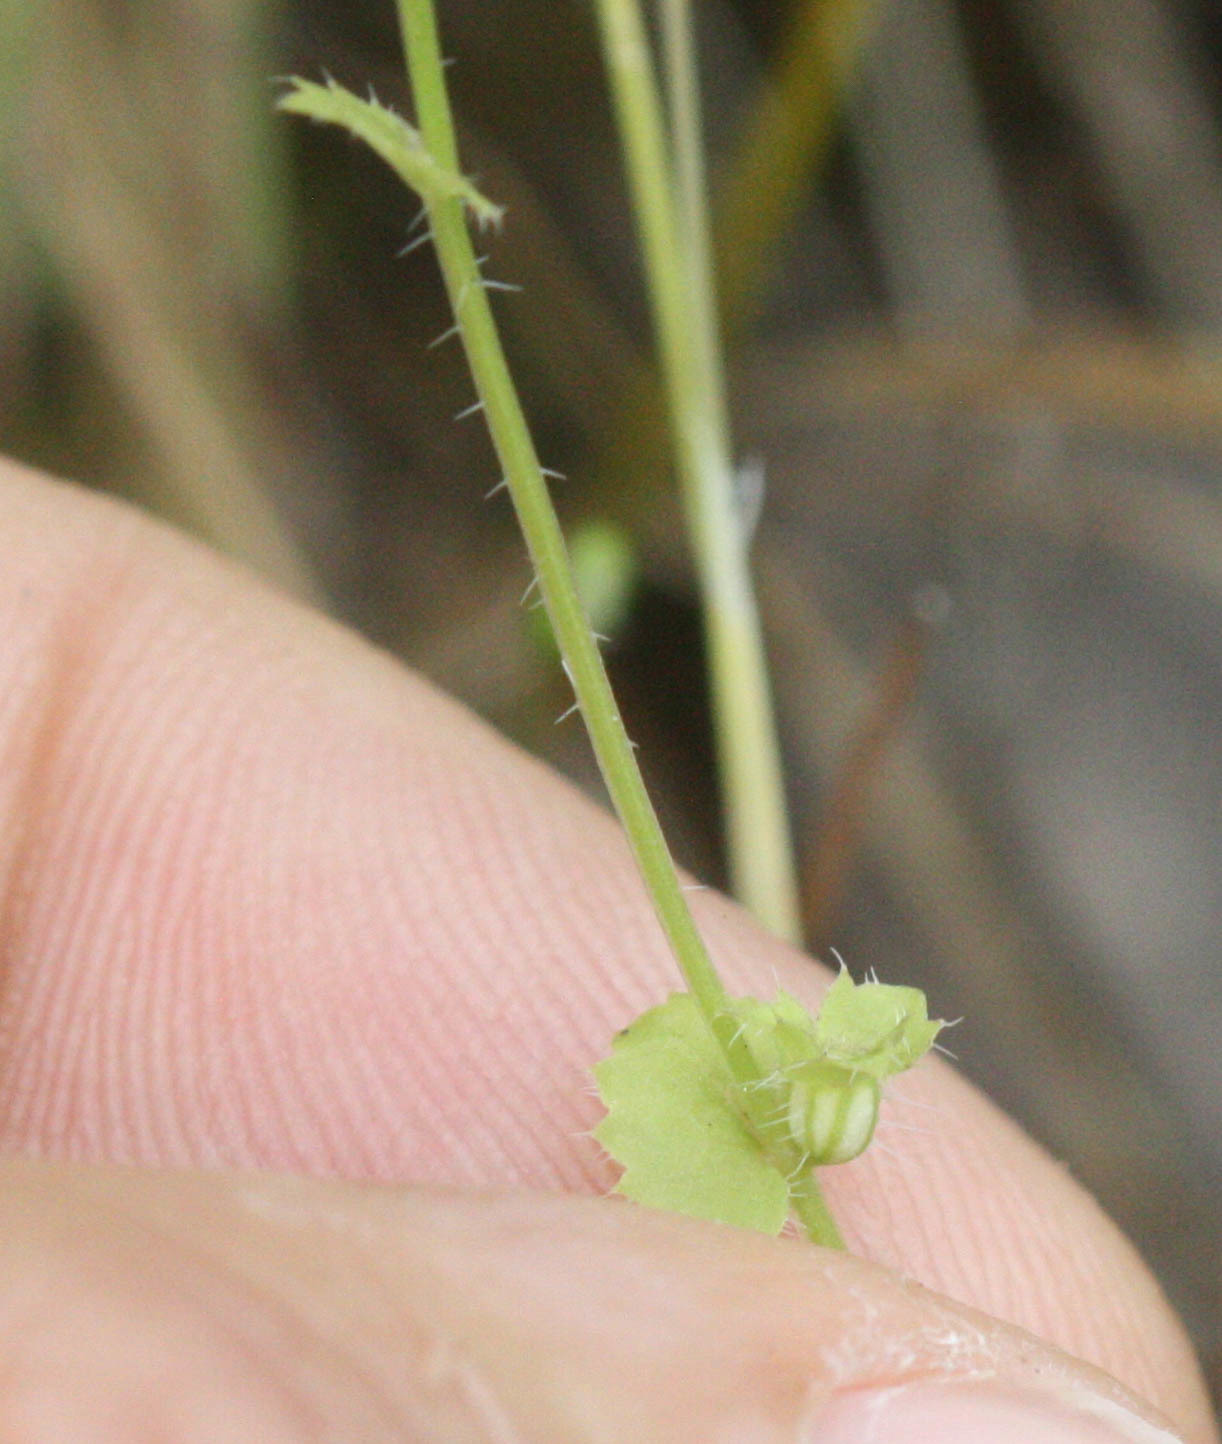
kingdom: Plantae
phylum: Tracheophyta
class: Magnoliopsida
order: Asterales
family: Campanulaceae
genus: Heterocodon
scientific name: Heterocodon rariflorum
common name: Rareflower heterocodon
